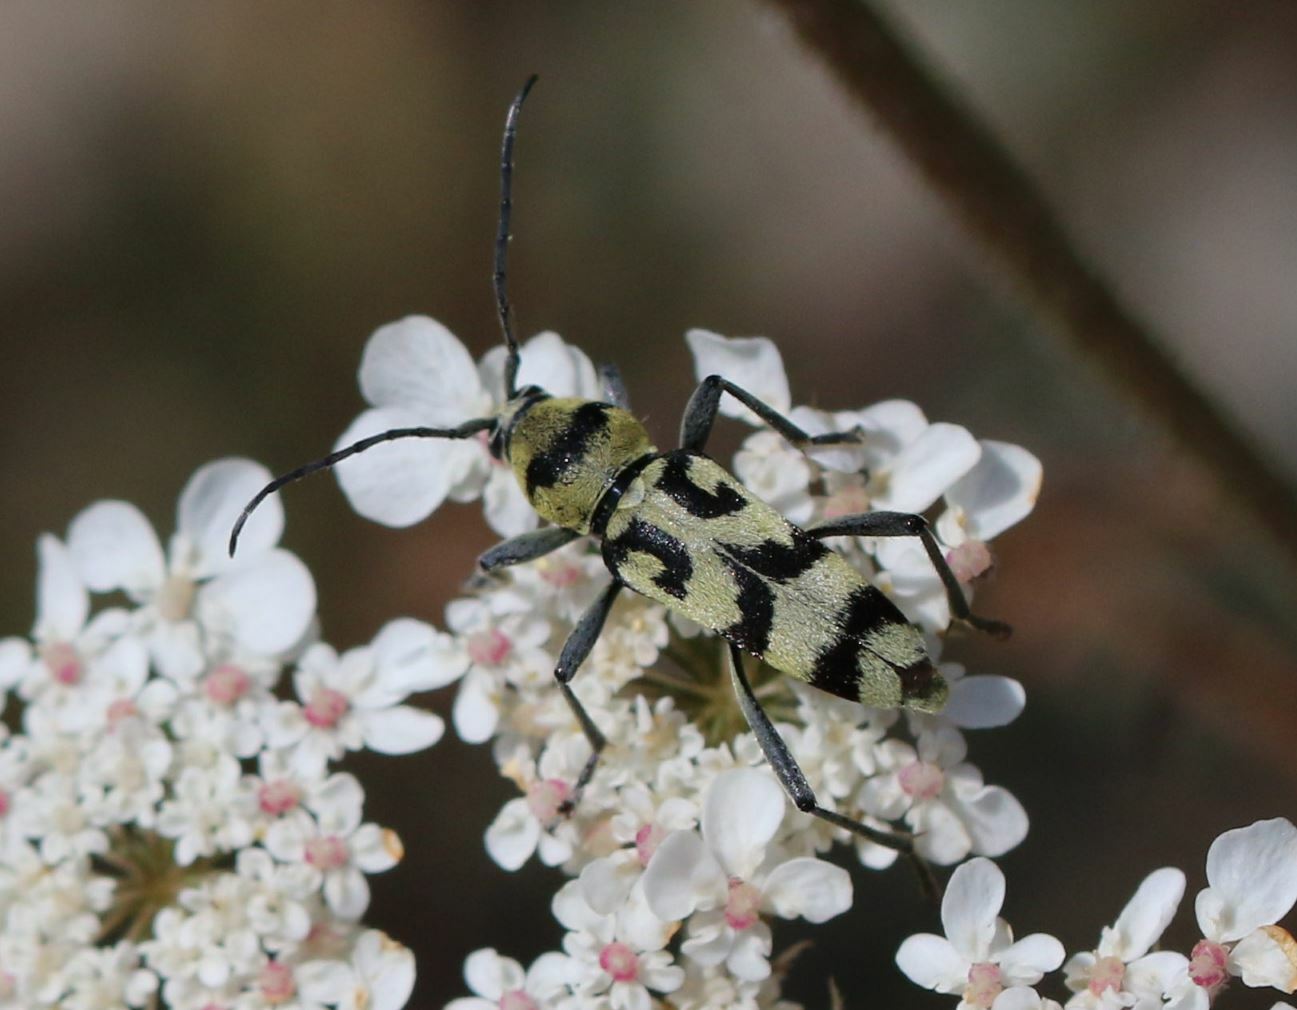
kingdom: Animalia
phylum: Arthropoda
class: Insecta
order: Coleoptera
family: Cerambycidae
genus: Chlorophorus
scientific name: Chlorophorus varius
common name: Grape wood borer
